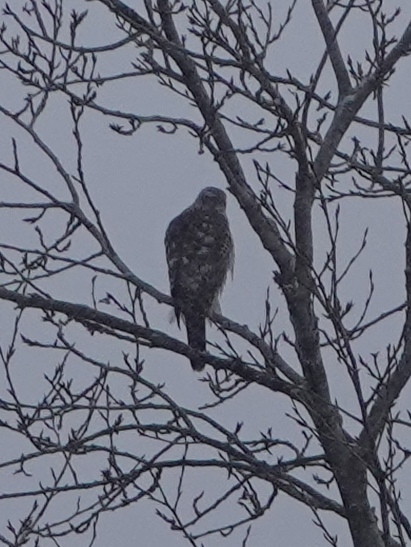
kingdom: Animalia
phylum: Chordata
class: Aves
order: Accipitriformes
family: Accipitridae
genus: Accipiter
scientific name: Accipiter gentilis
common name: Northern goshawk
